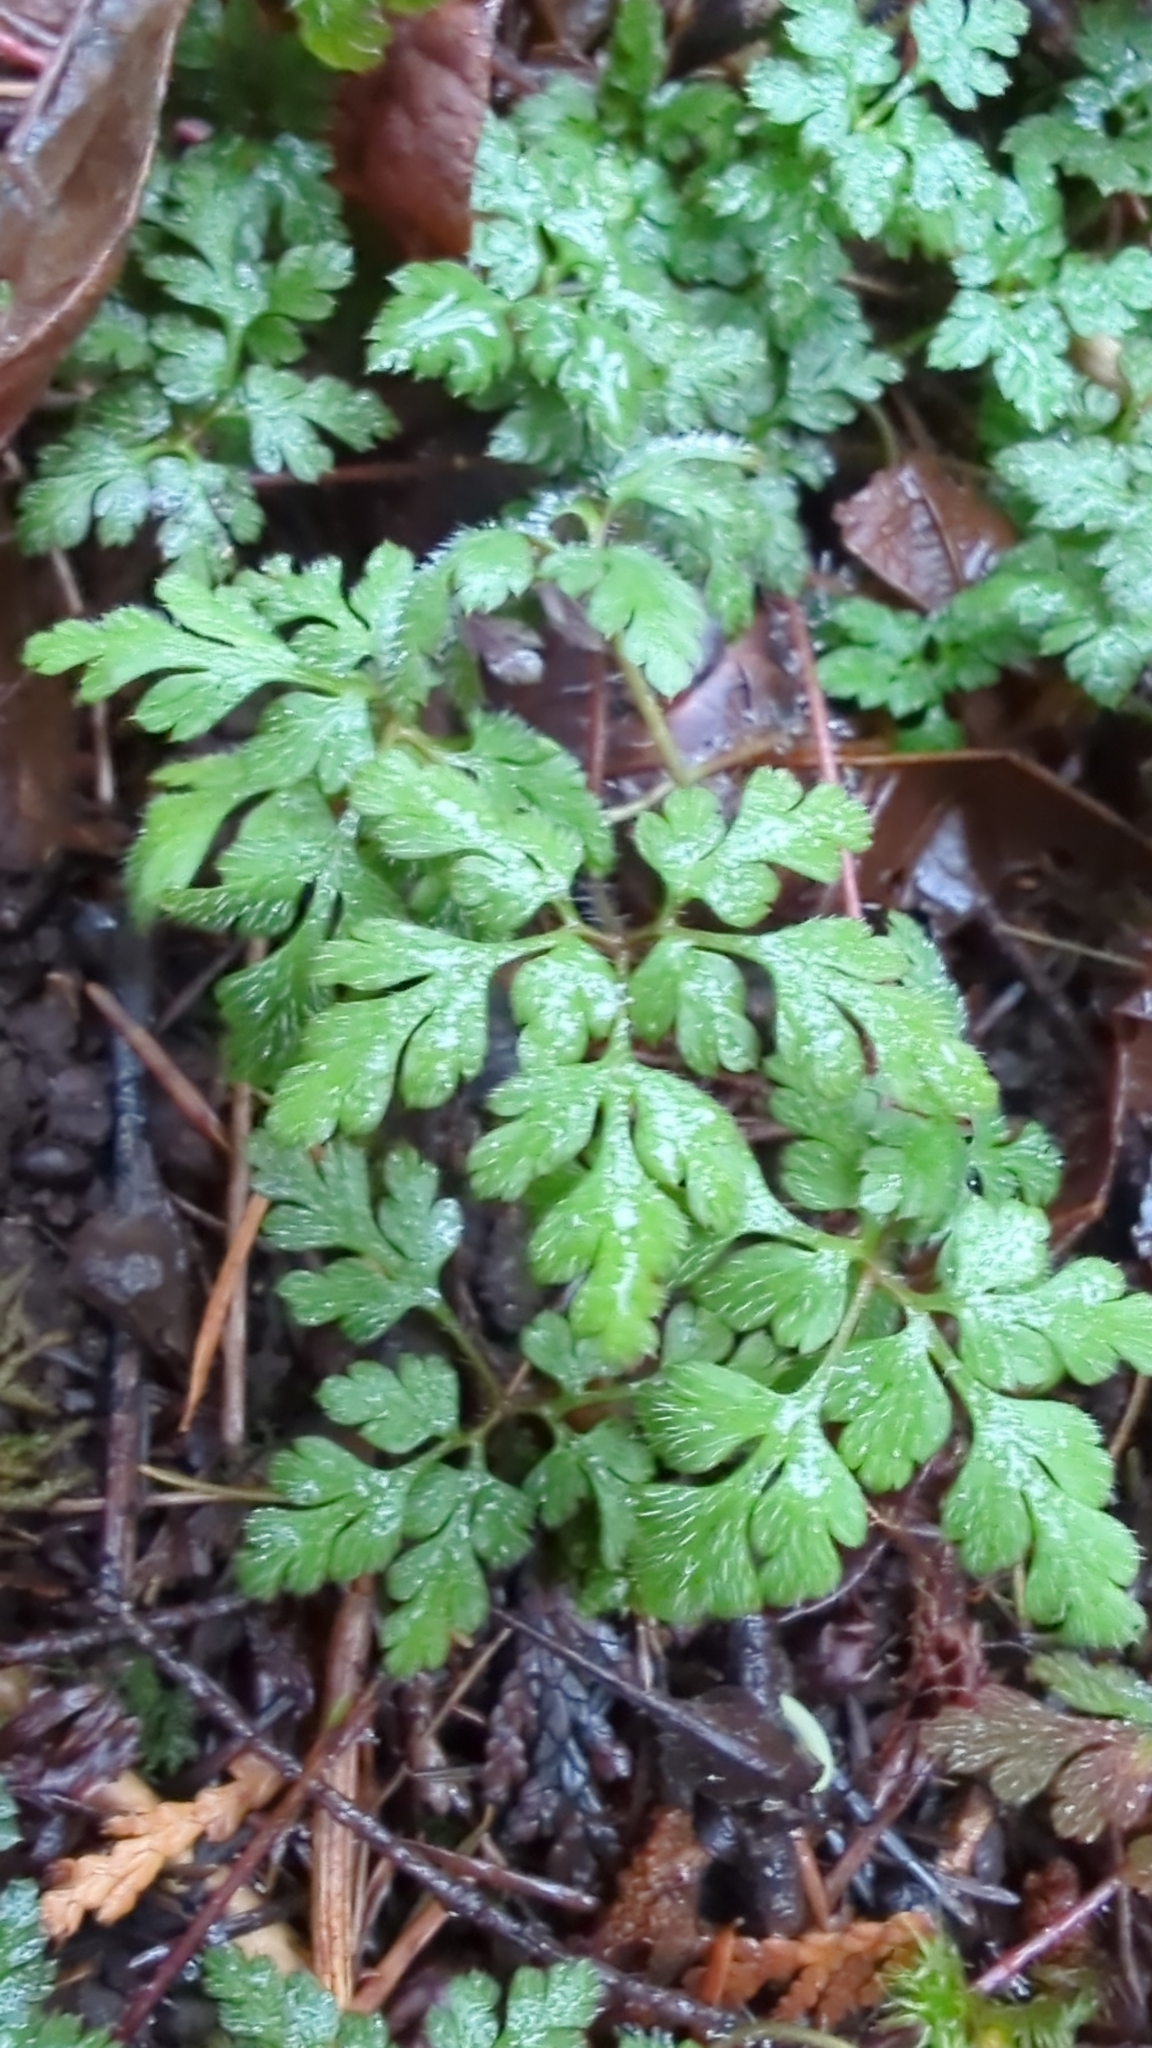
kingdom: Plantae
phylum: Tracheophyta
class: Magnoliopsida
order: Geraniales
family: Geraniaceae
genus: Geranium
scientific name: Geranium robertianum
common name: Herb-robert
